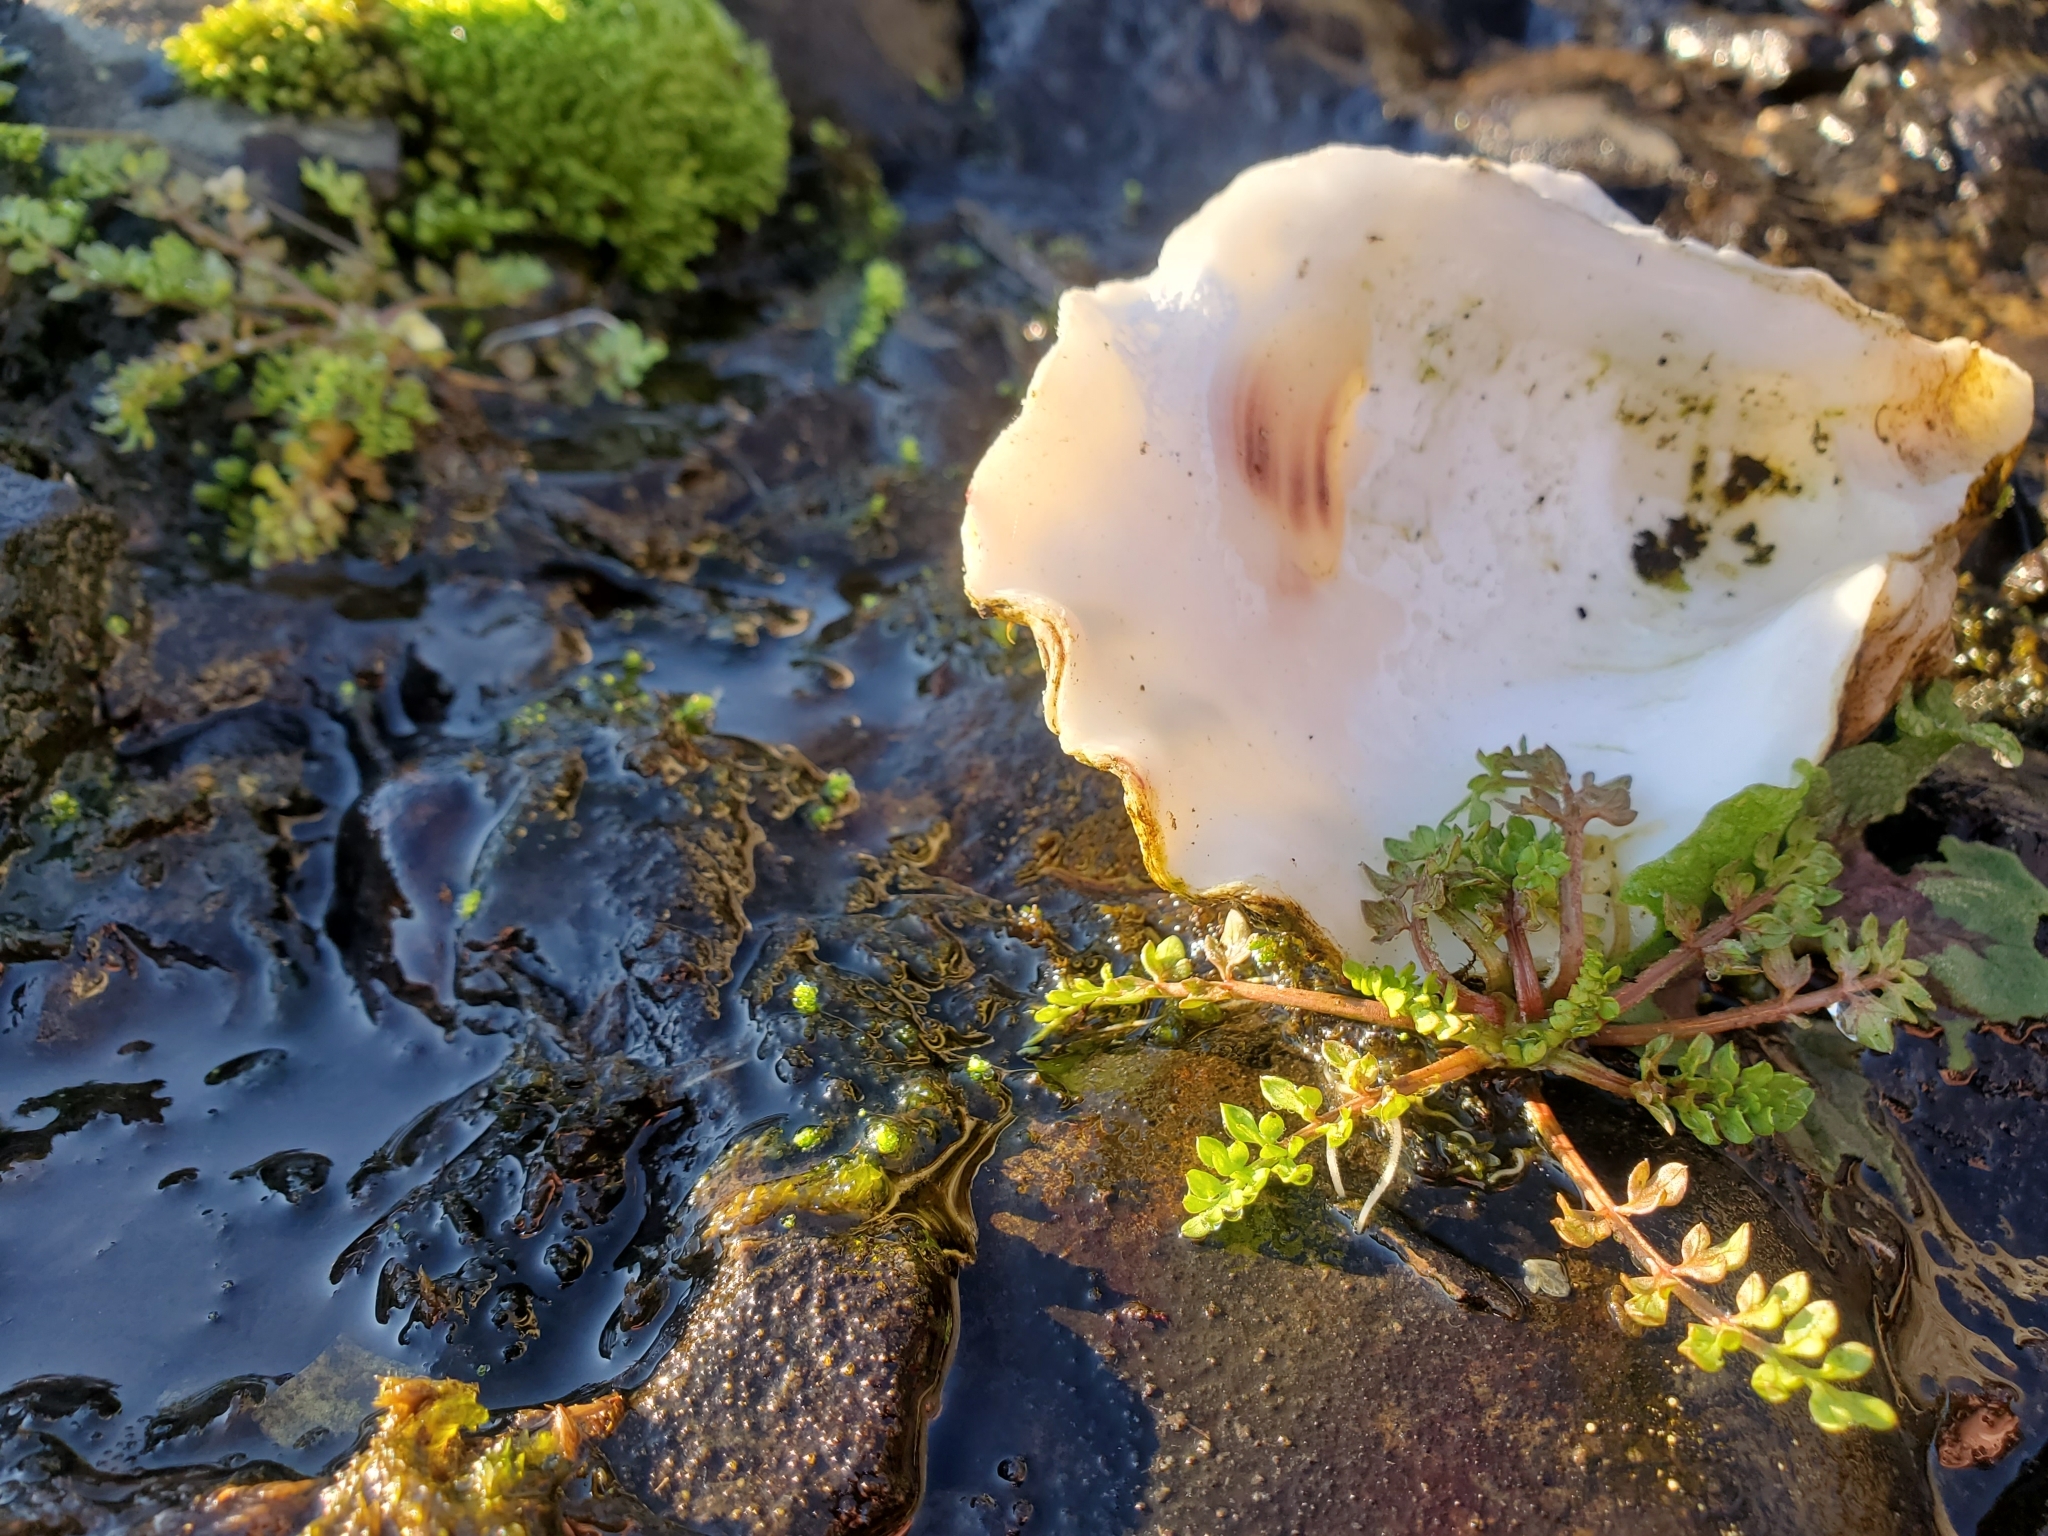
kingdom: Plantae
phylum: Tracheophyta
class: Magnoliopsida
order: Brassicales
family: Limnanthaceae
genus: Limnanthes
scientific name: Limnanthes macounii
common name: Macoun's meadowfoam
